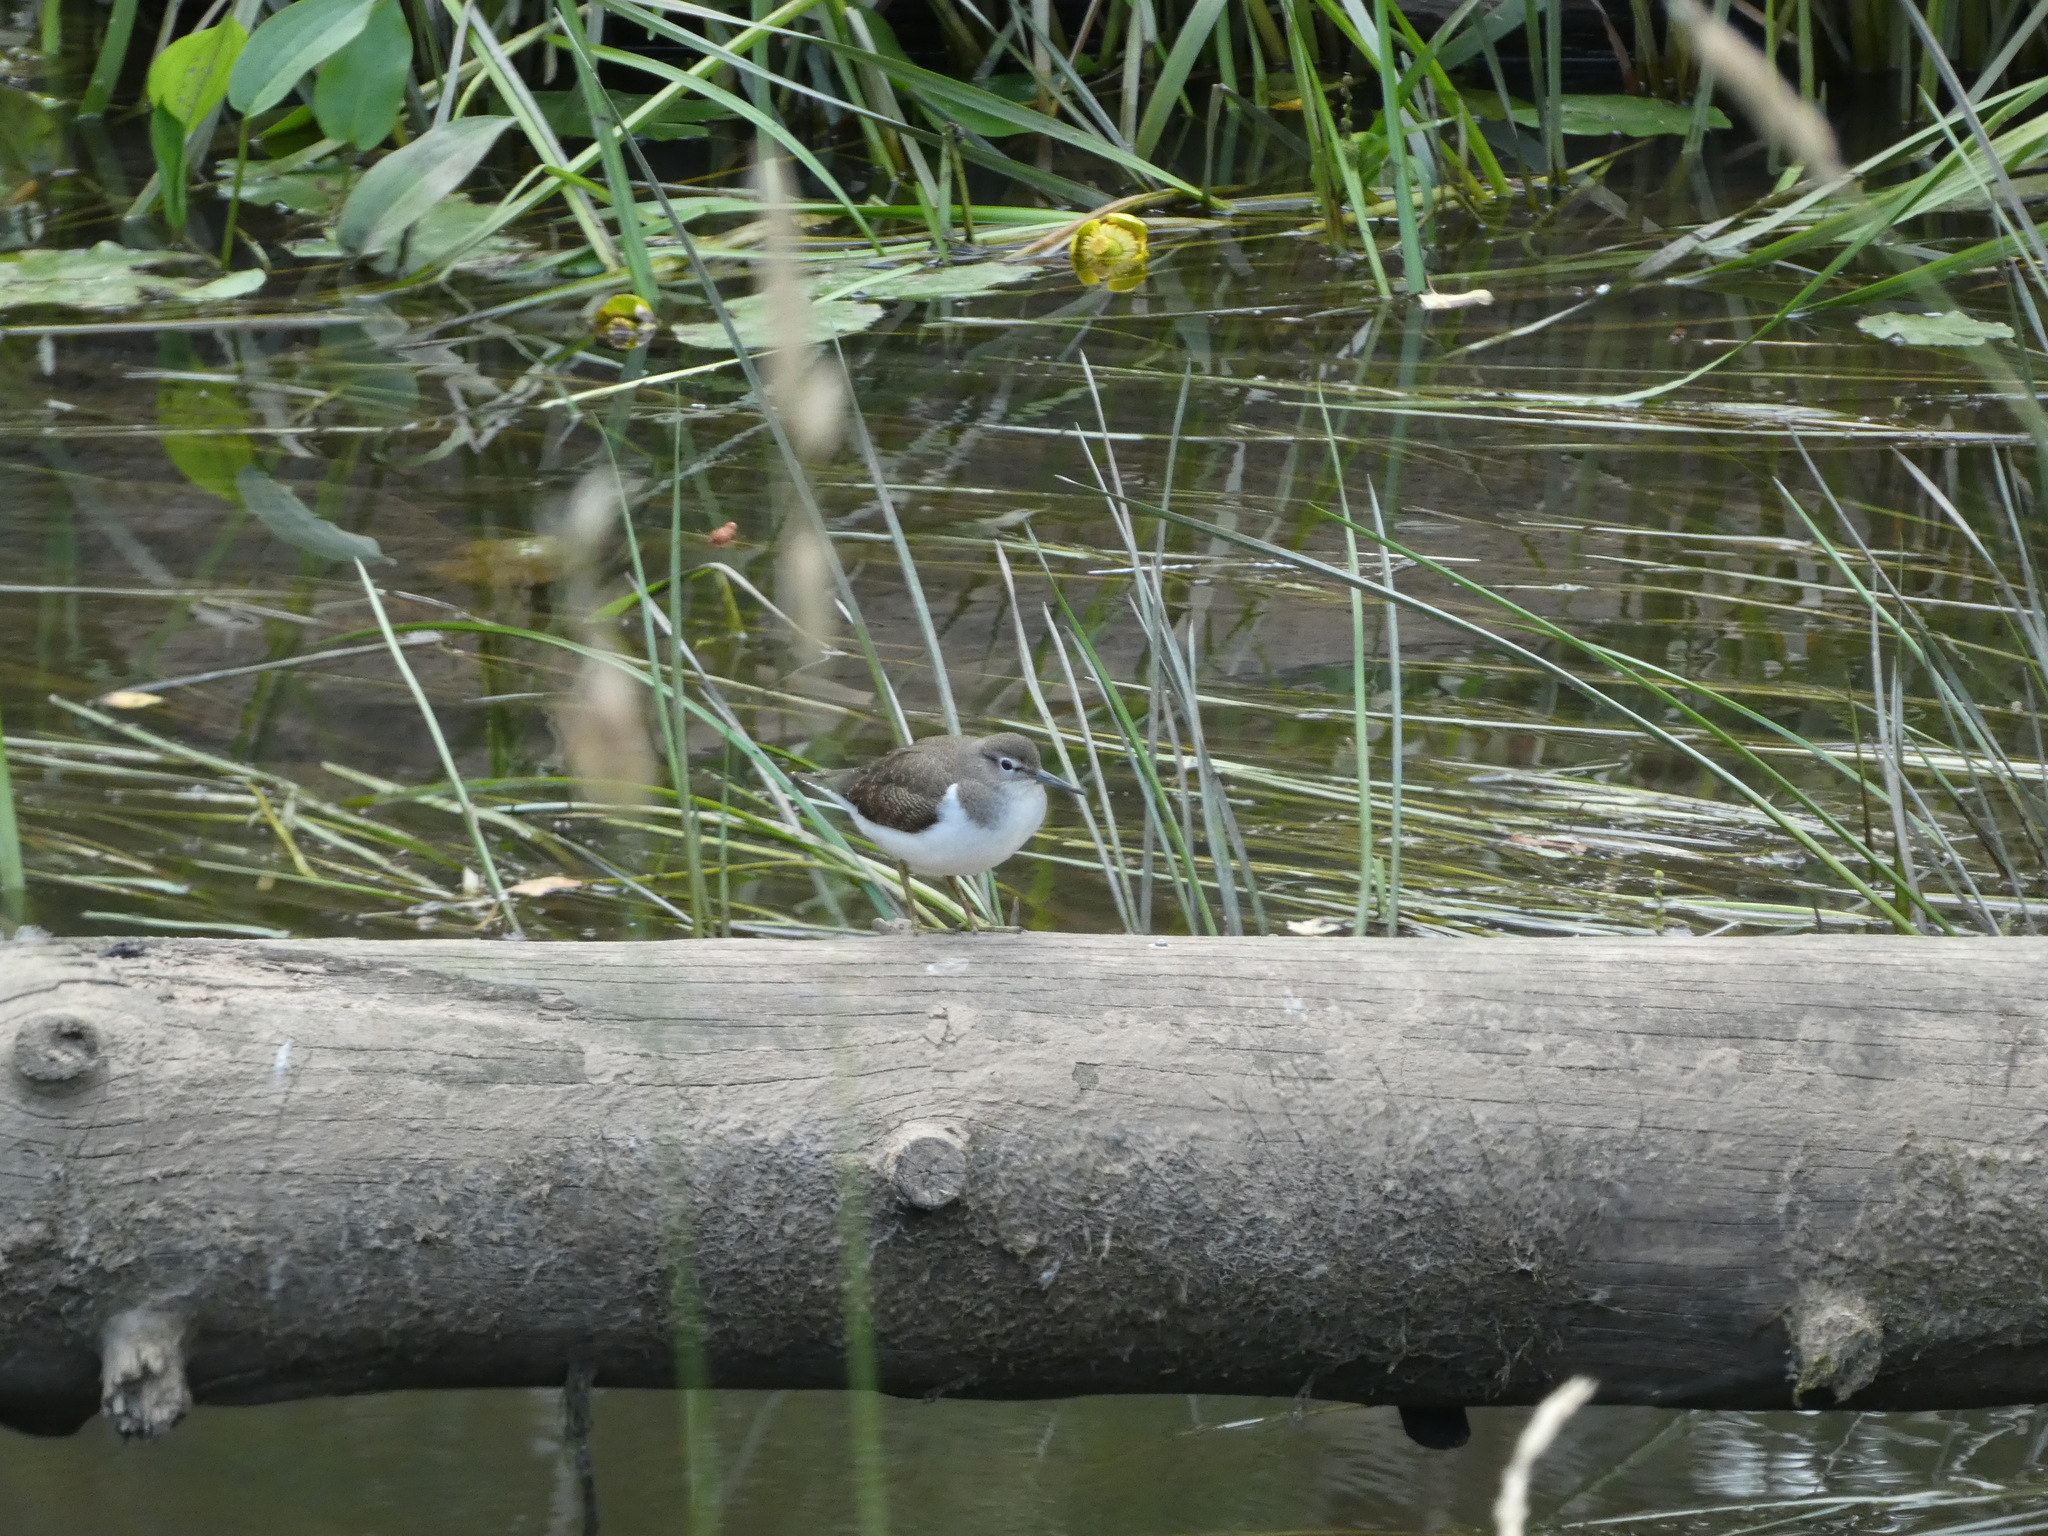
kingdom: Animalia
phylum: Chordata
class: Aves
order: Charadriiformes
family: Scolopacidae
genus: Actitis
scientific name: Actitis hypoleucos
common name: Common sandpiper
